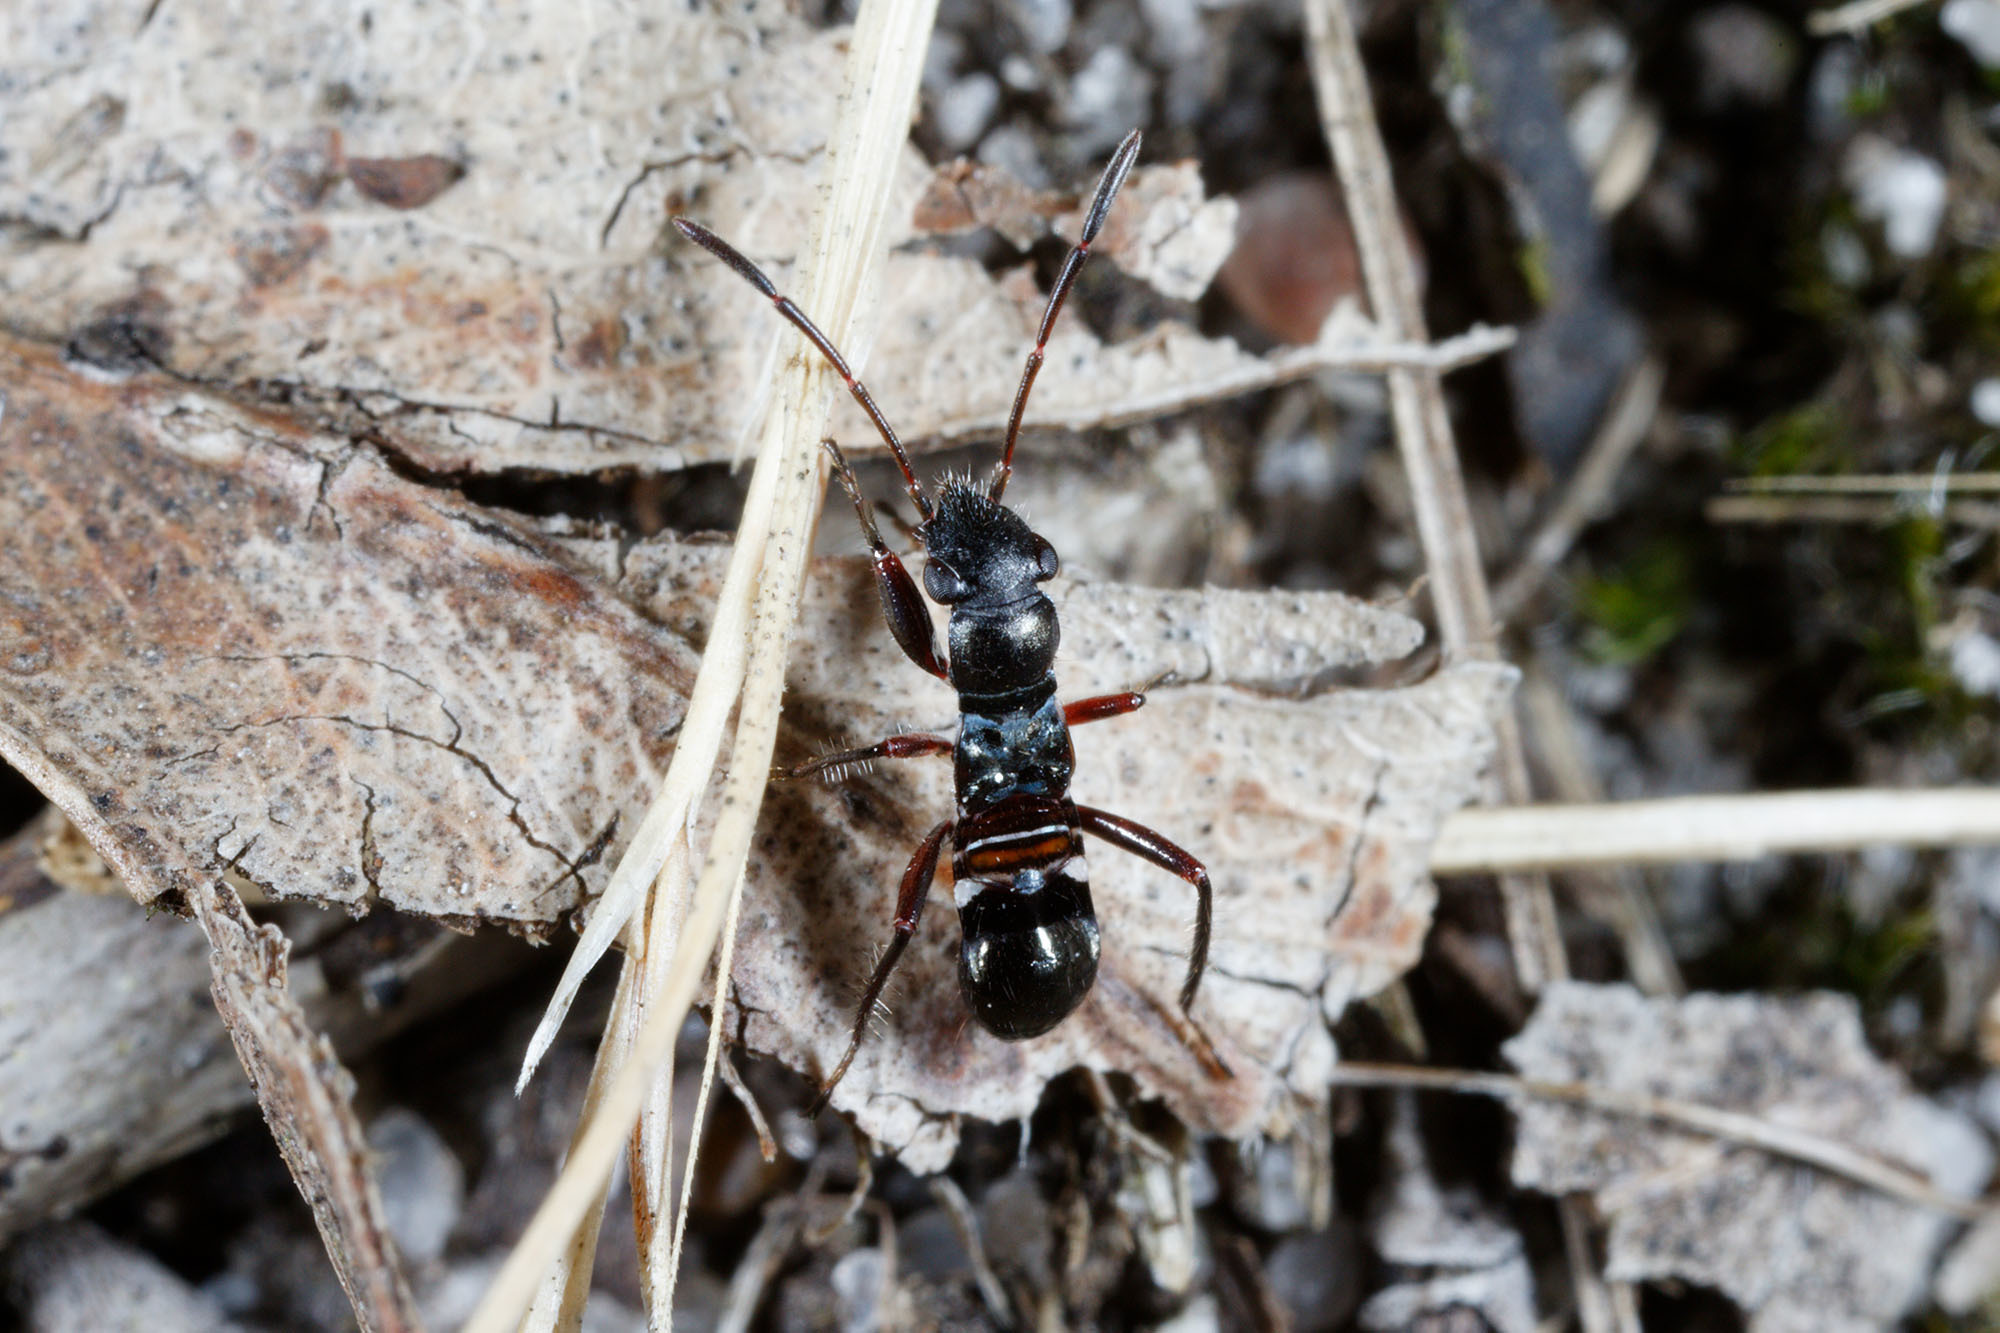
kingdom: Animalia
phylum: Arthropoda
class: Insecta
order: Hemiptera
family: Rhyparochromidae
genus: Daerlac
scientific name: Daerlac cephalotes
